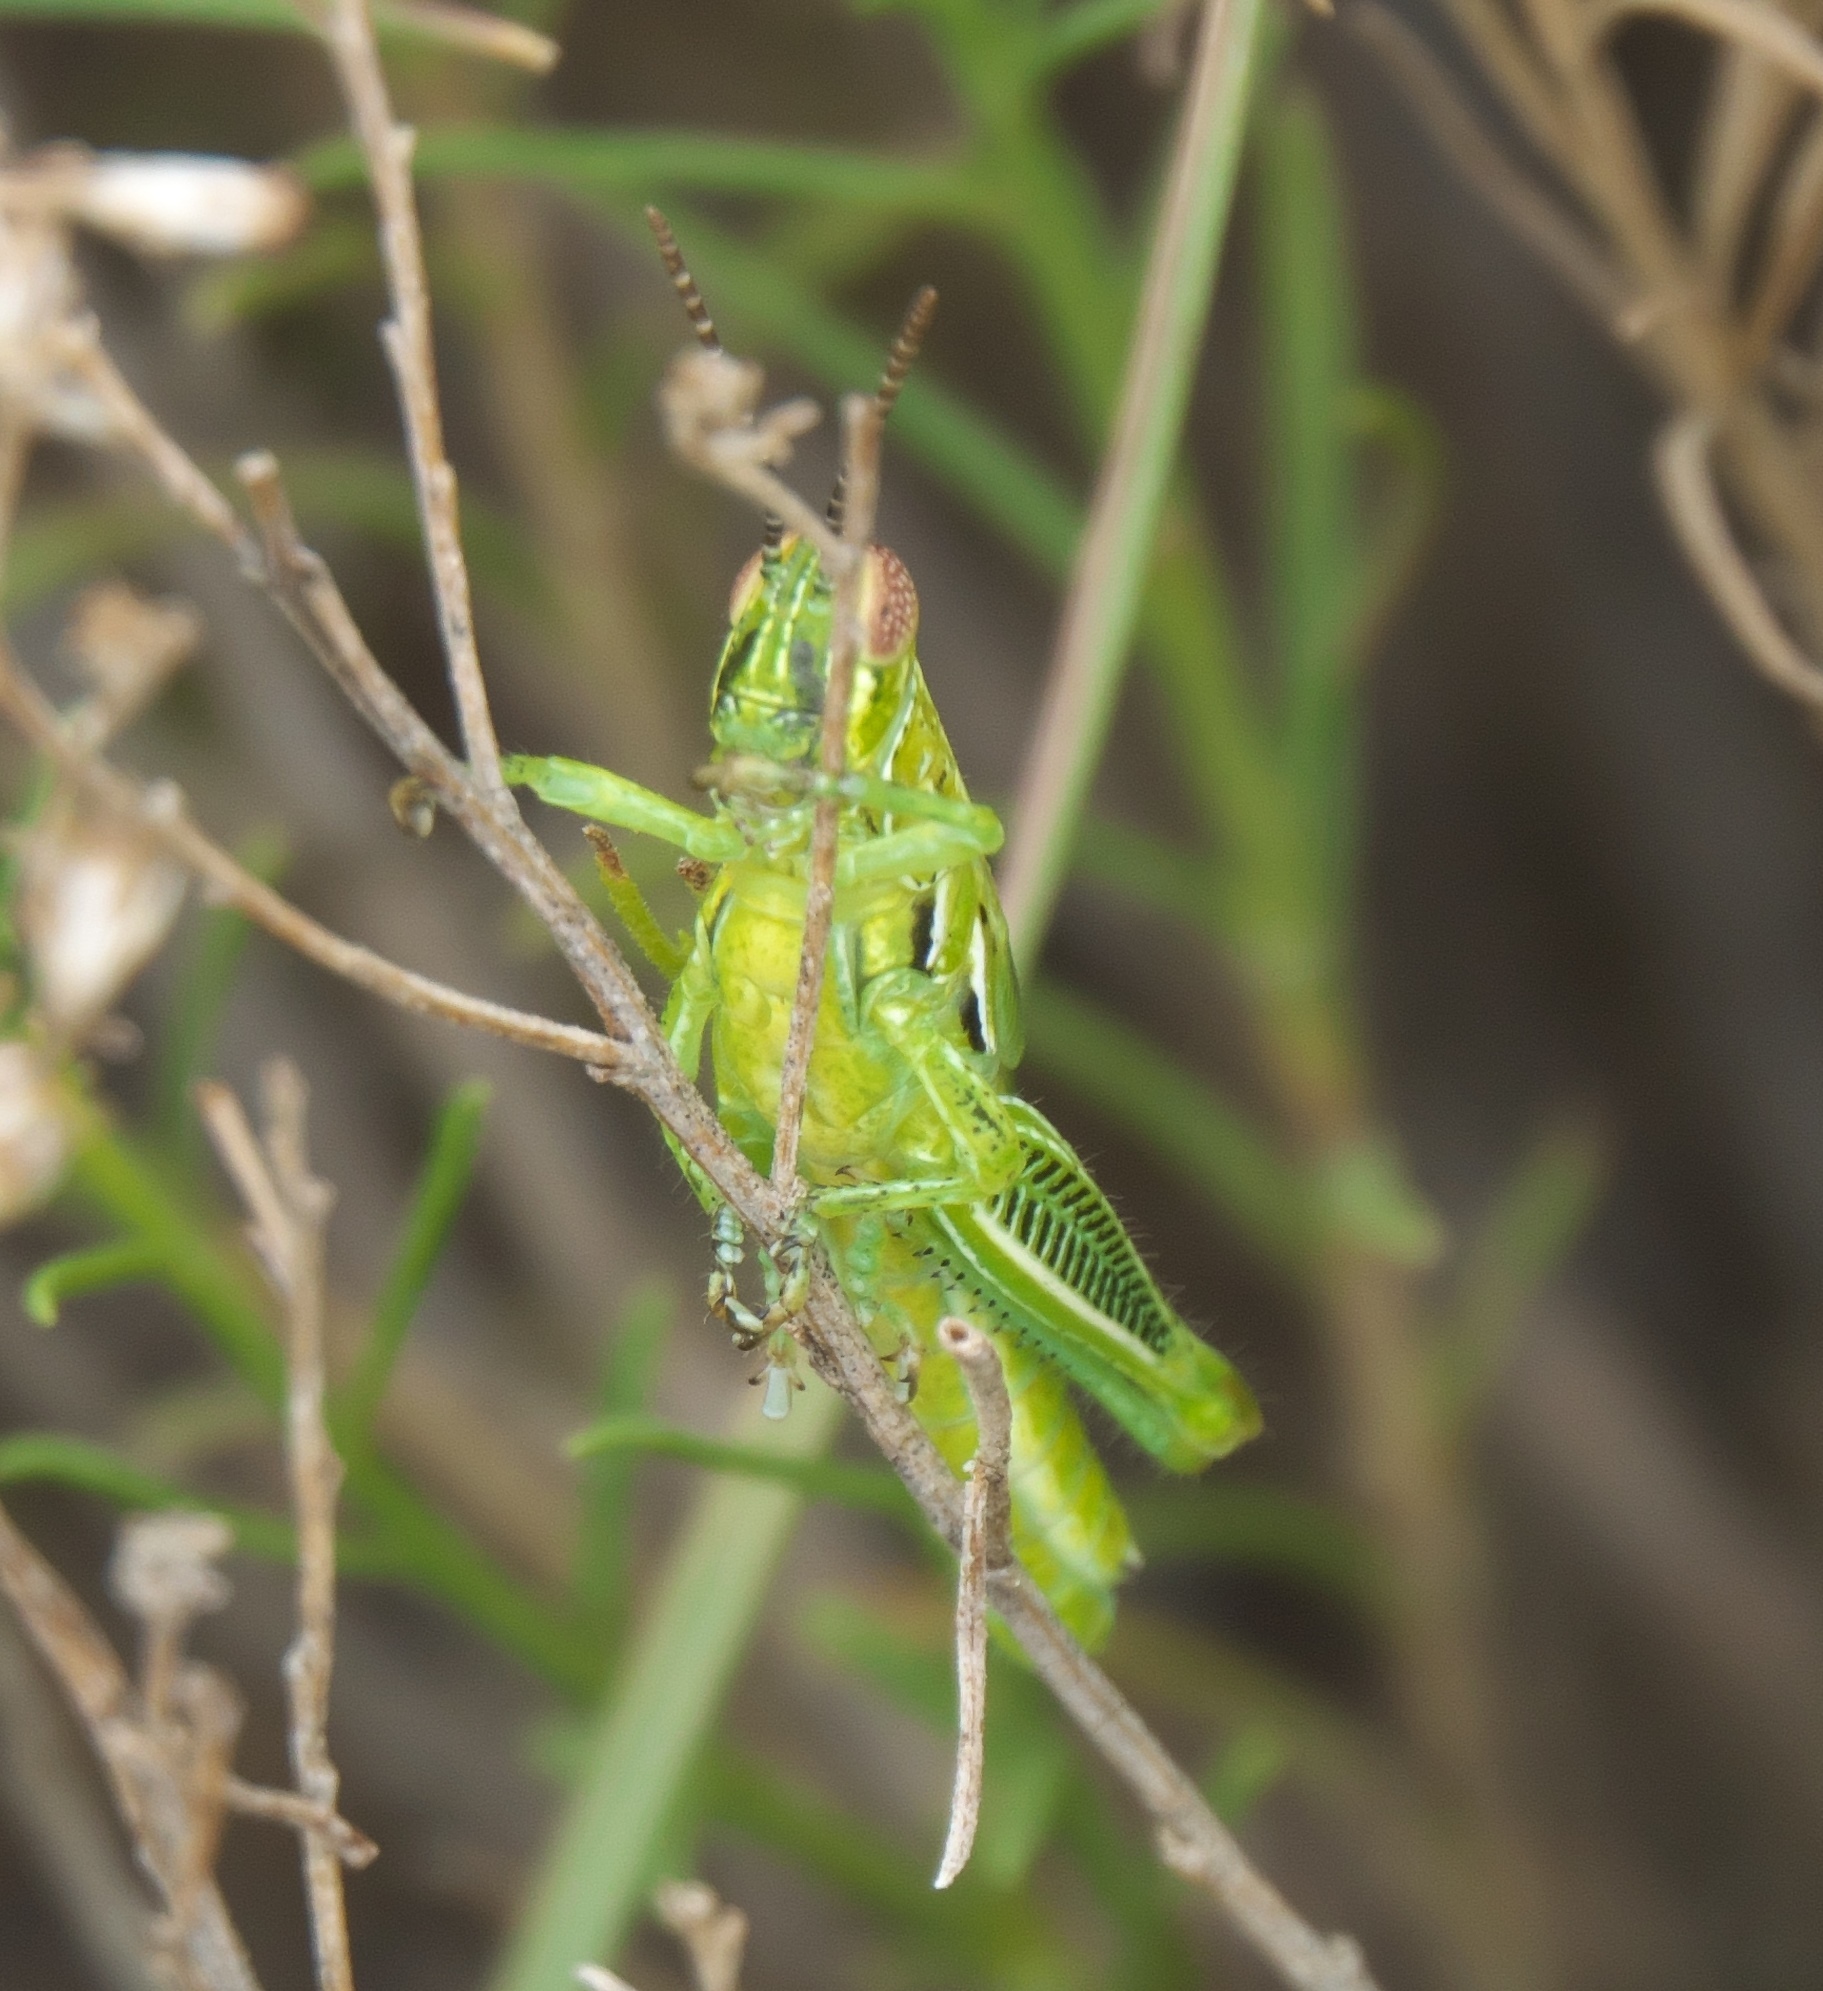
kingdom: Animalia
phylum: Arthropoda
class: Insecta
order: Orthoptera
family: Acrididae
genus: Hesperotettix
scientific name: Hesperotettix viridis
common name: Meadow purple-striped grasshopper
